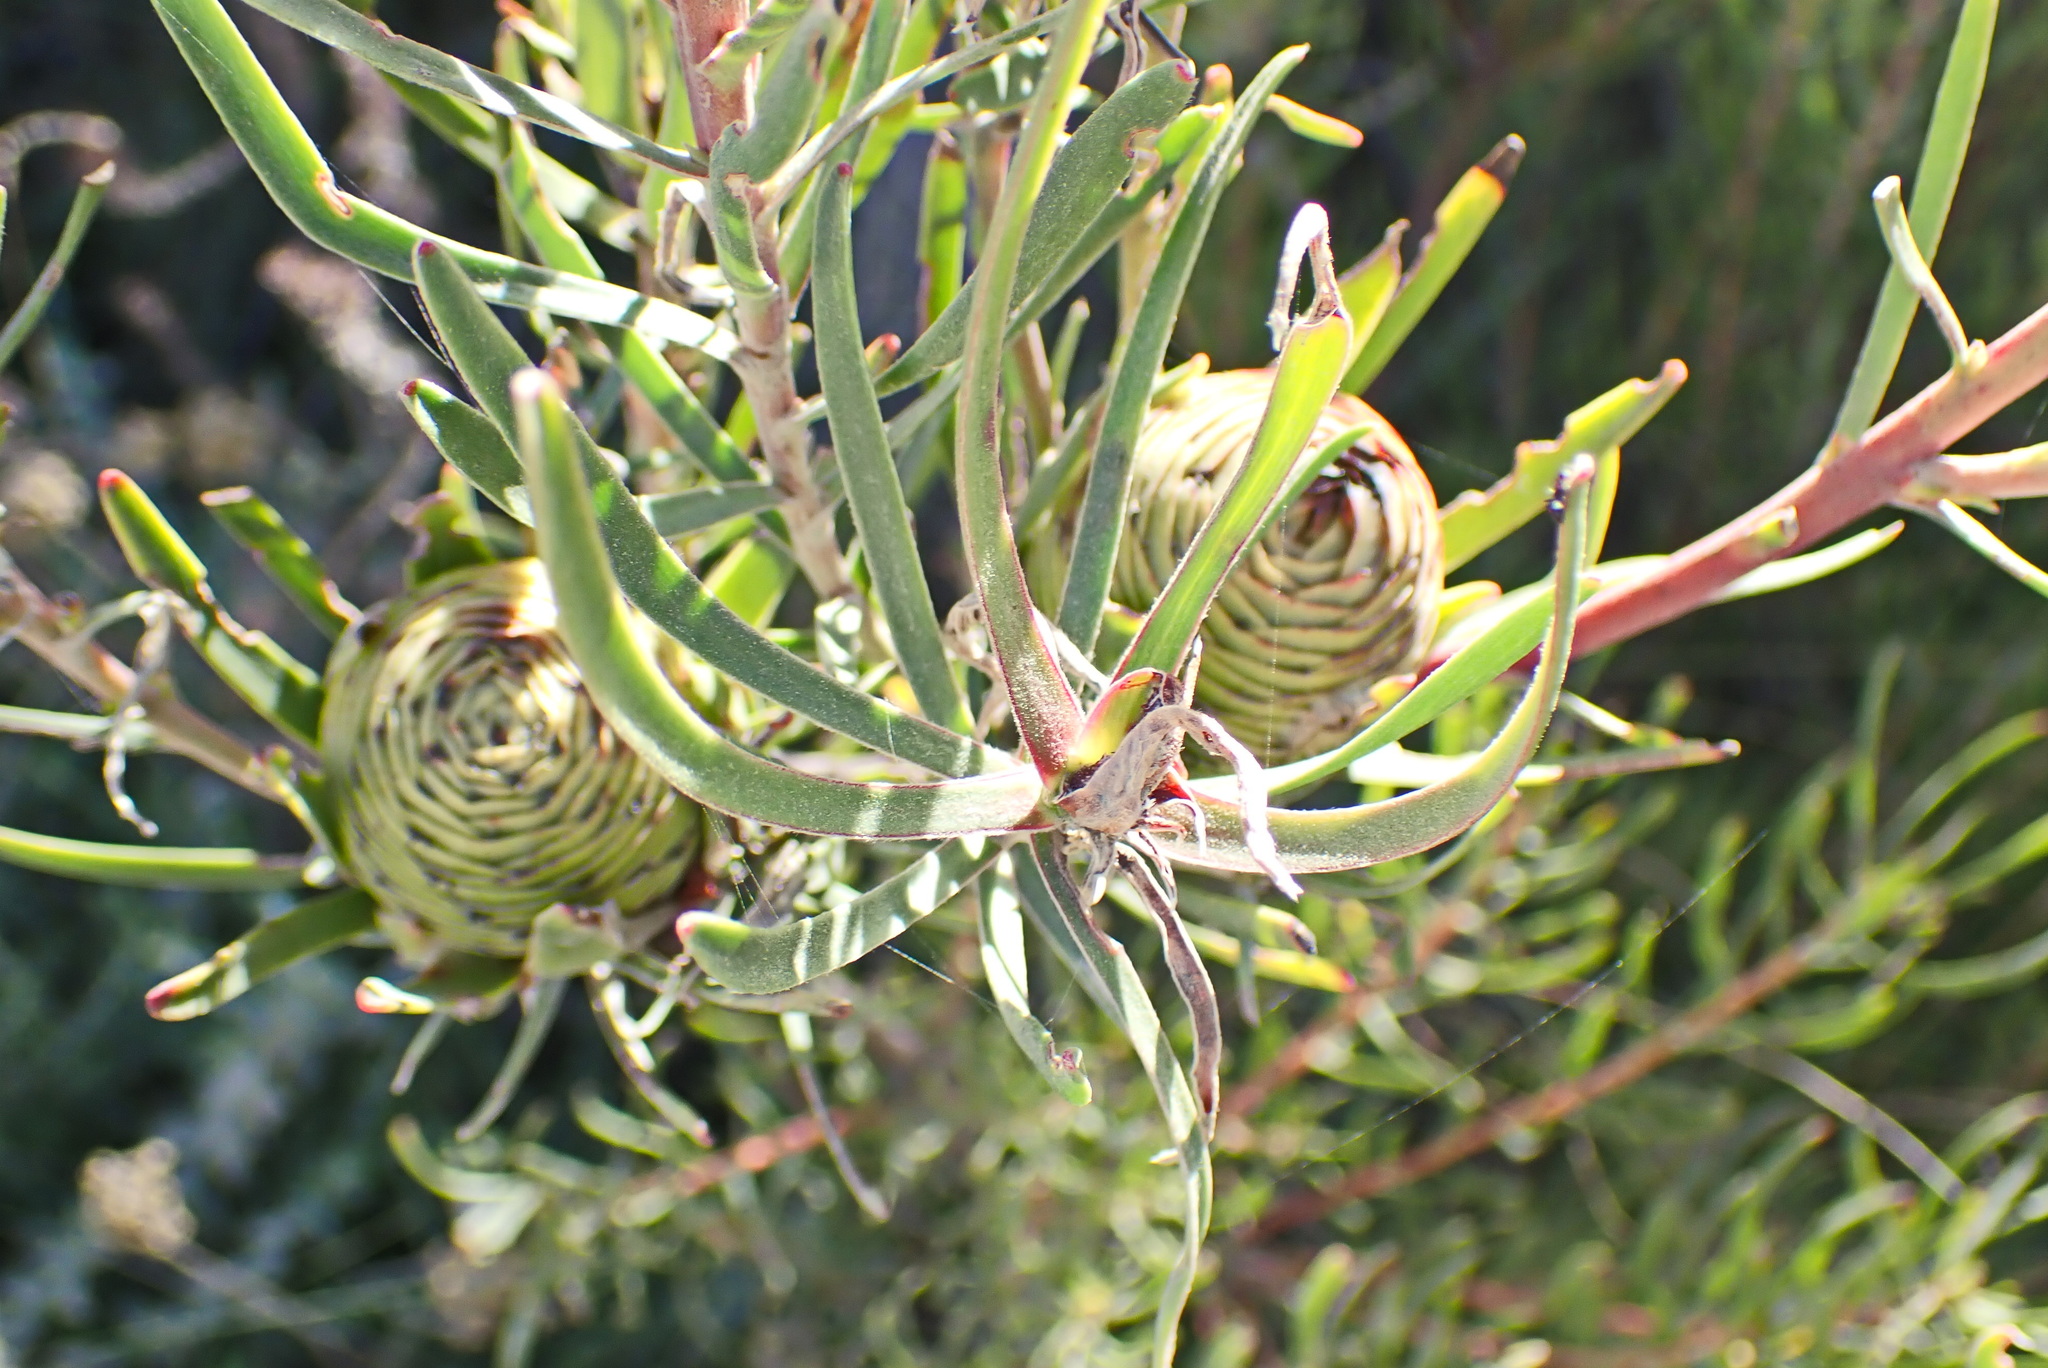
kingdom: Plantae
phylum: Tracheophyta
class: Magnoliopsida
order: Proteales
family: Proteaceae
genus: Leucadendron
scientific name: Leucadendron spissifolium
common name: Spear-leaf conebush
